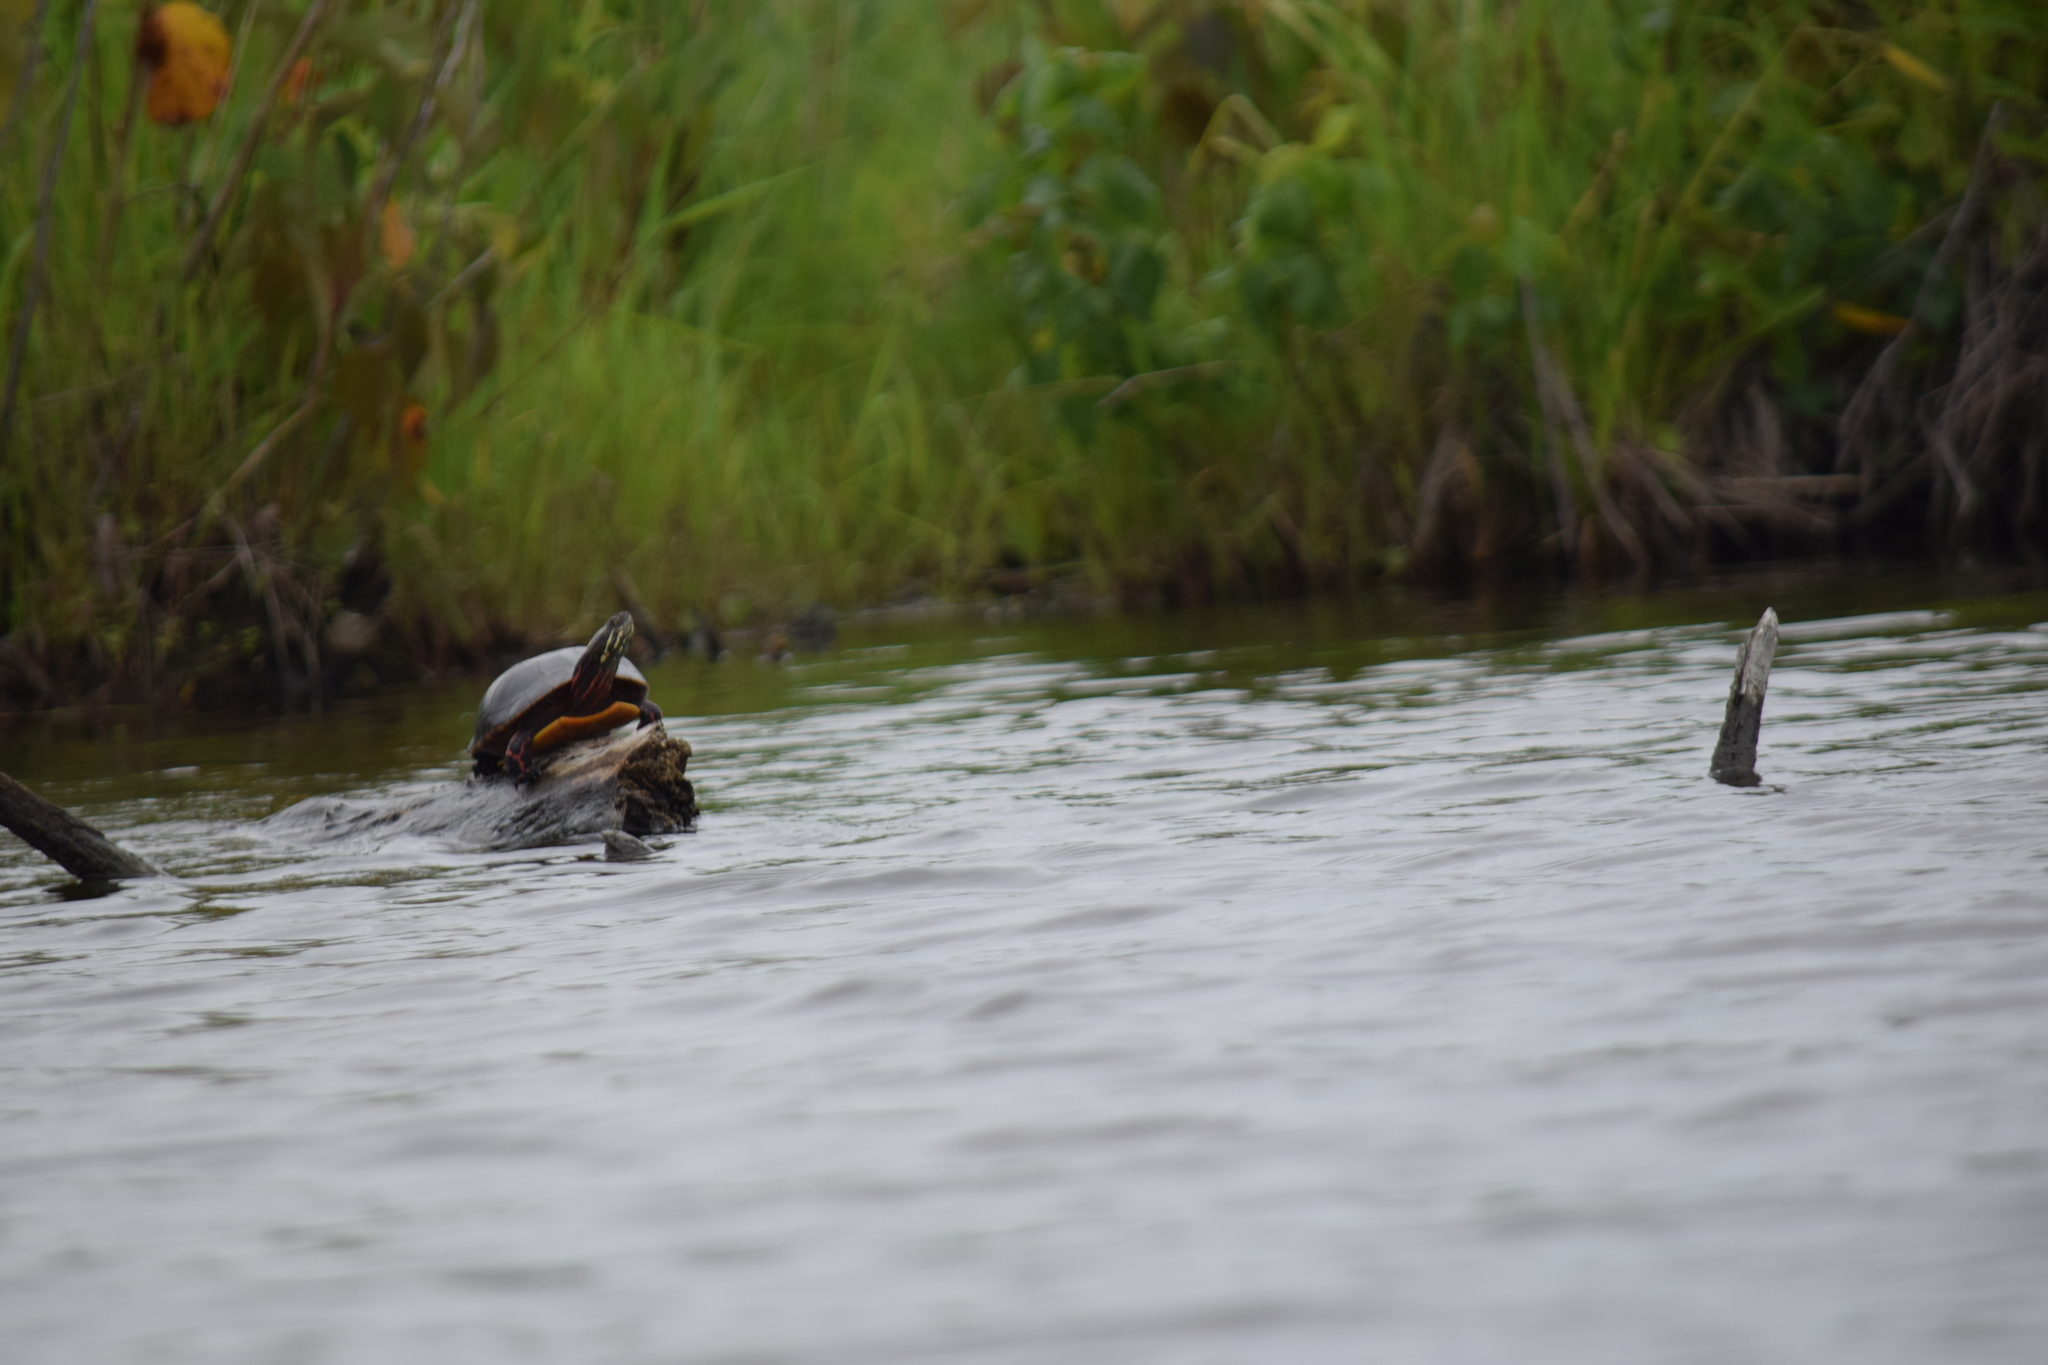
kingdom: Animalia
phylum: Chordata
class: Testudines
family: Emydidae
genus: Chrysemys
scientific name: Chrysemys picta
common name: Painted turtle
